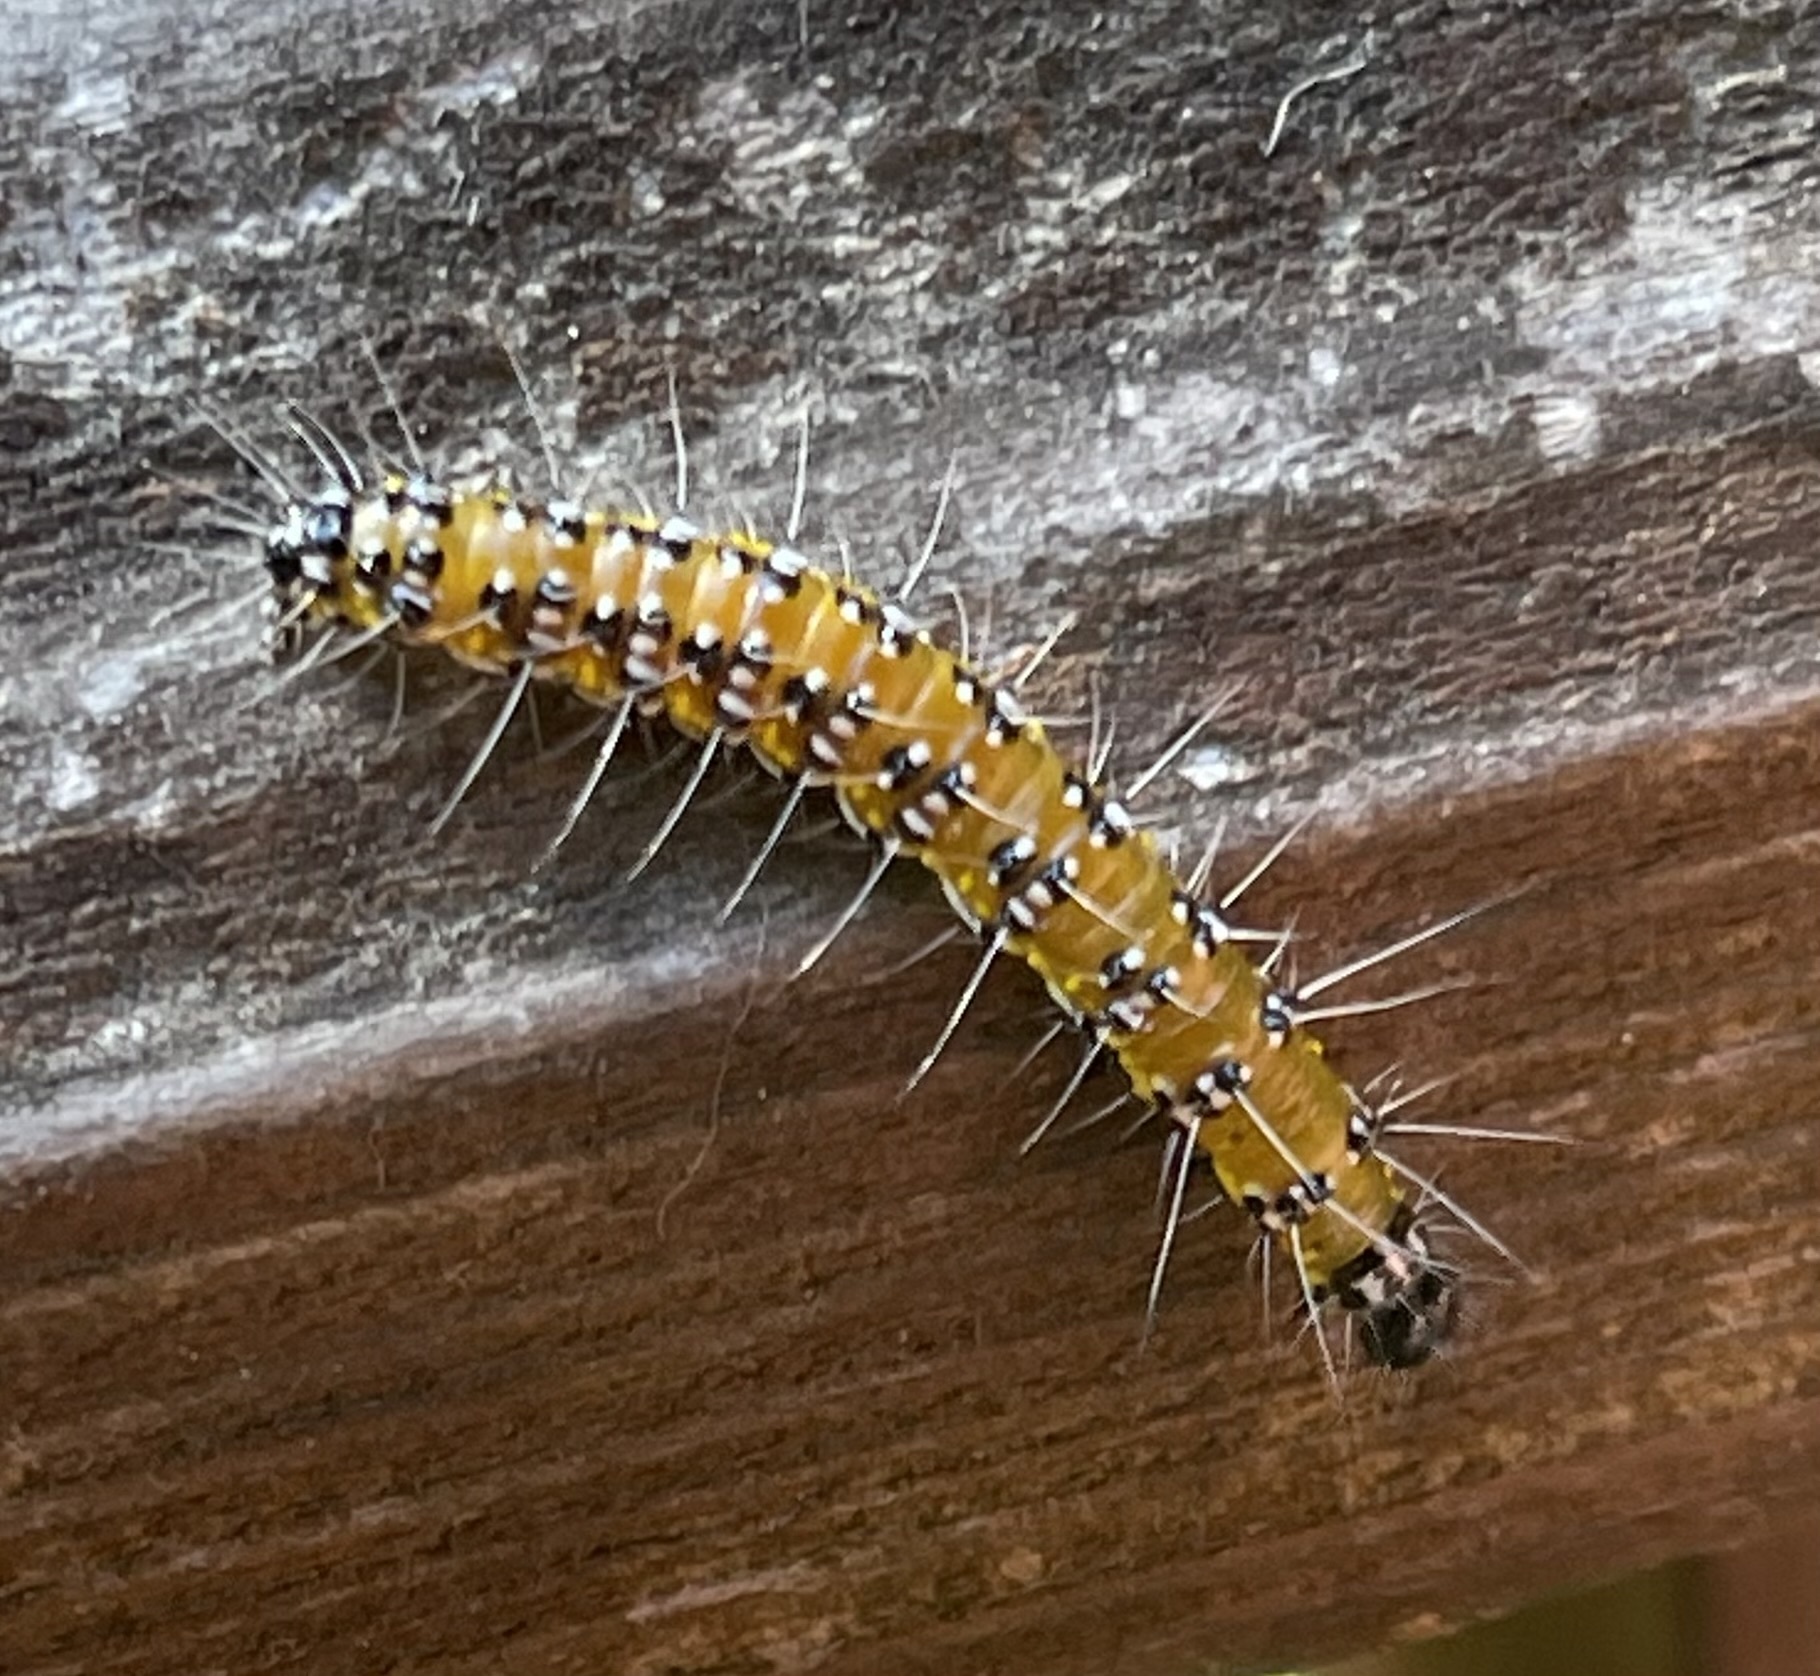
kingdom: Animalia
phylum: Arthropoda
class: Insecta
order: Lepidoptera
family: Crambidae
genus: Uresiphita
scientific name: Uresiphita reversalis
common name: Genista broom moth
